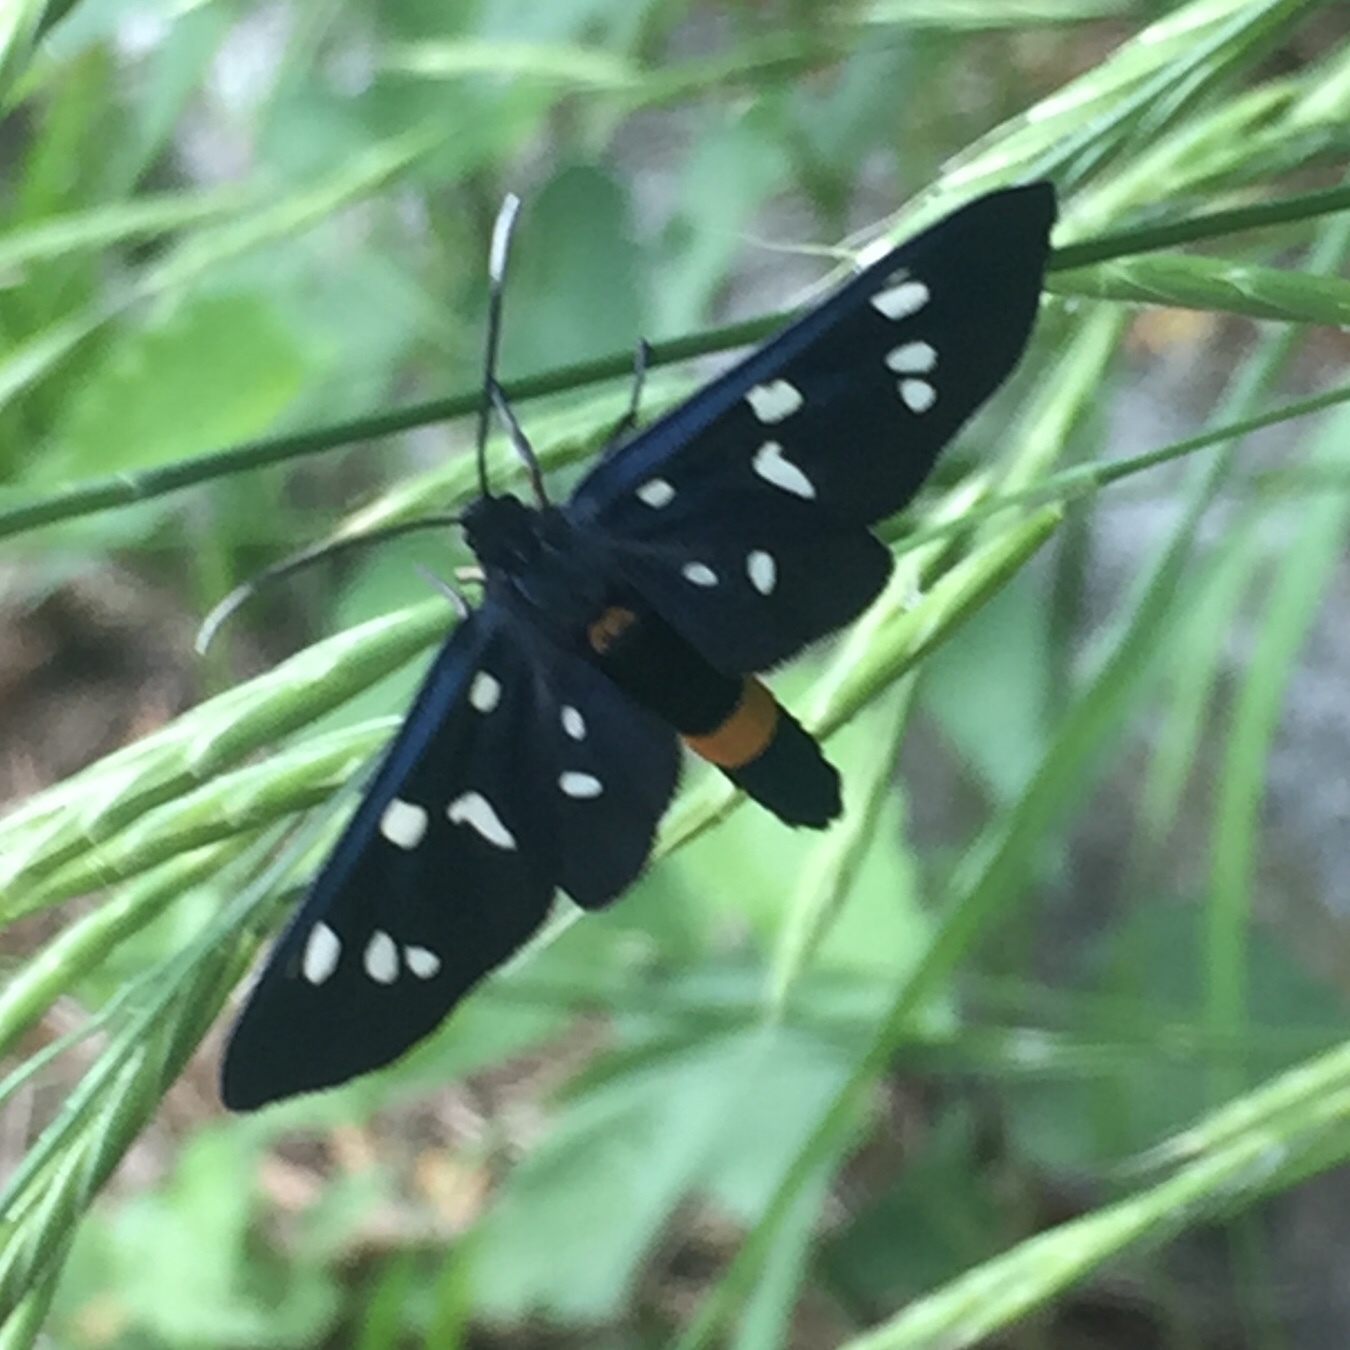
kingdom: Animalia
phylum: Arthropoda
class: Insecta
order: Lepidoptera
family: Erebidae
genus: Amata
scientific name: Amata phegea
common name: Nine-spotted
